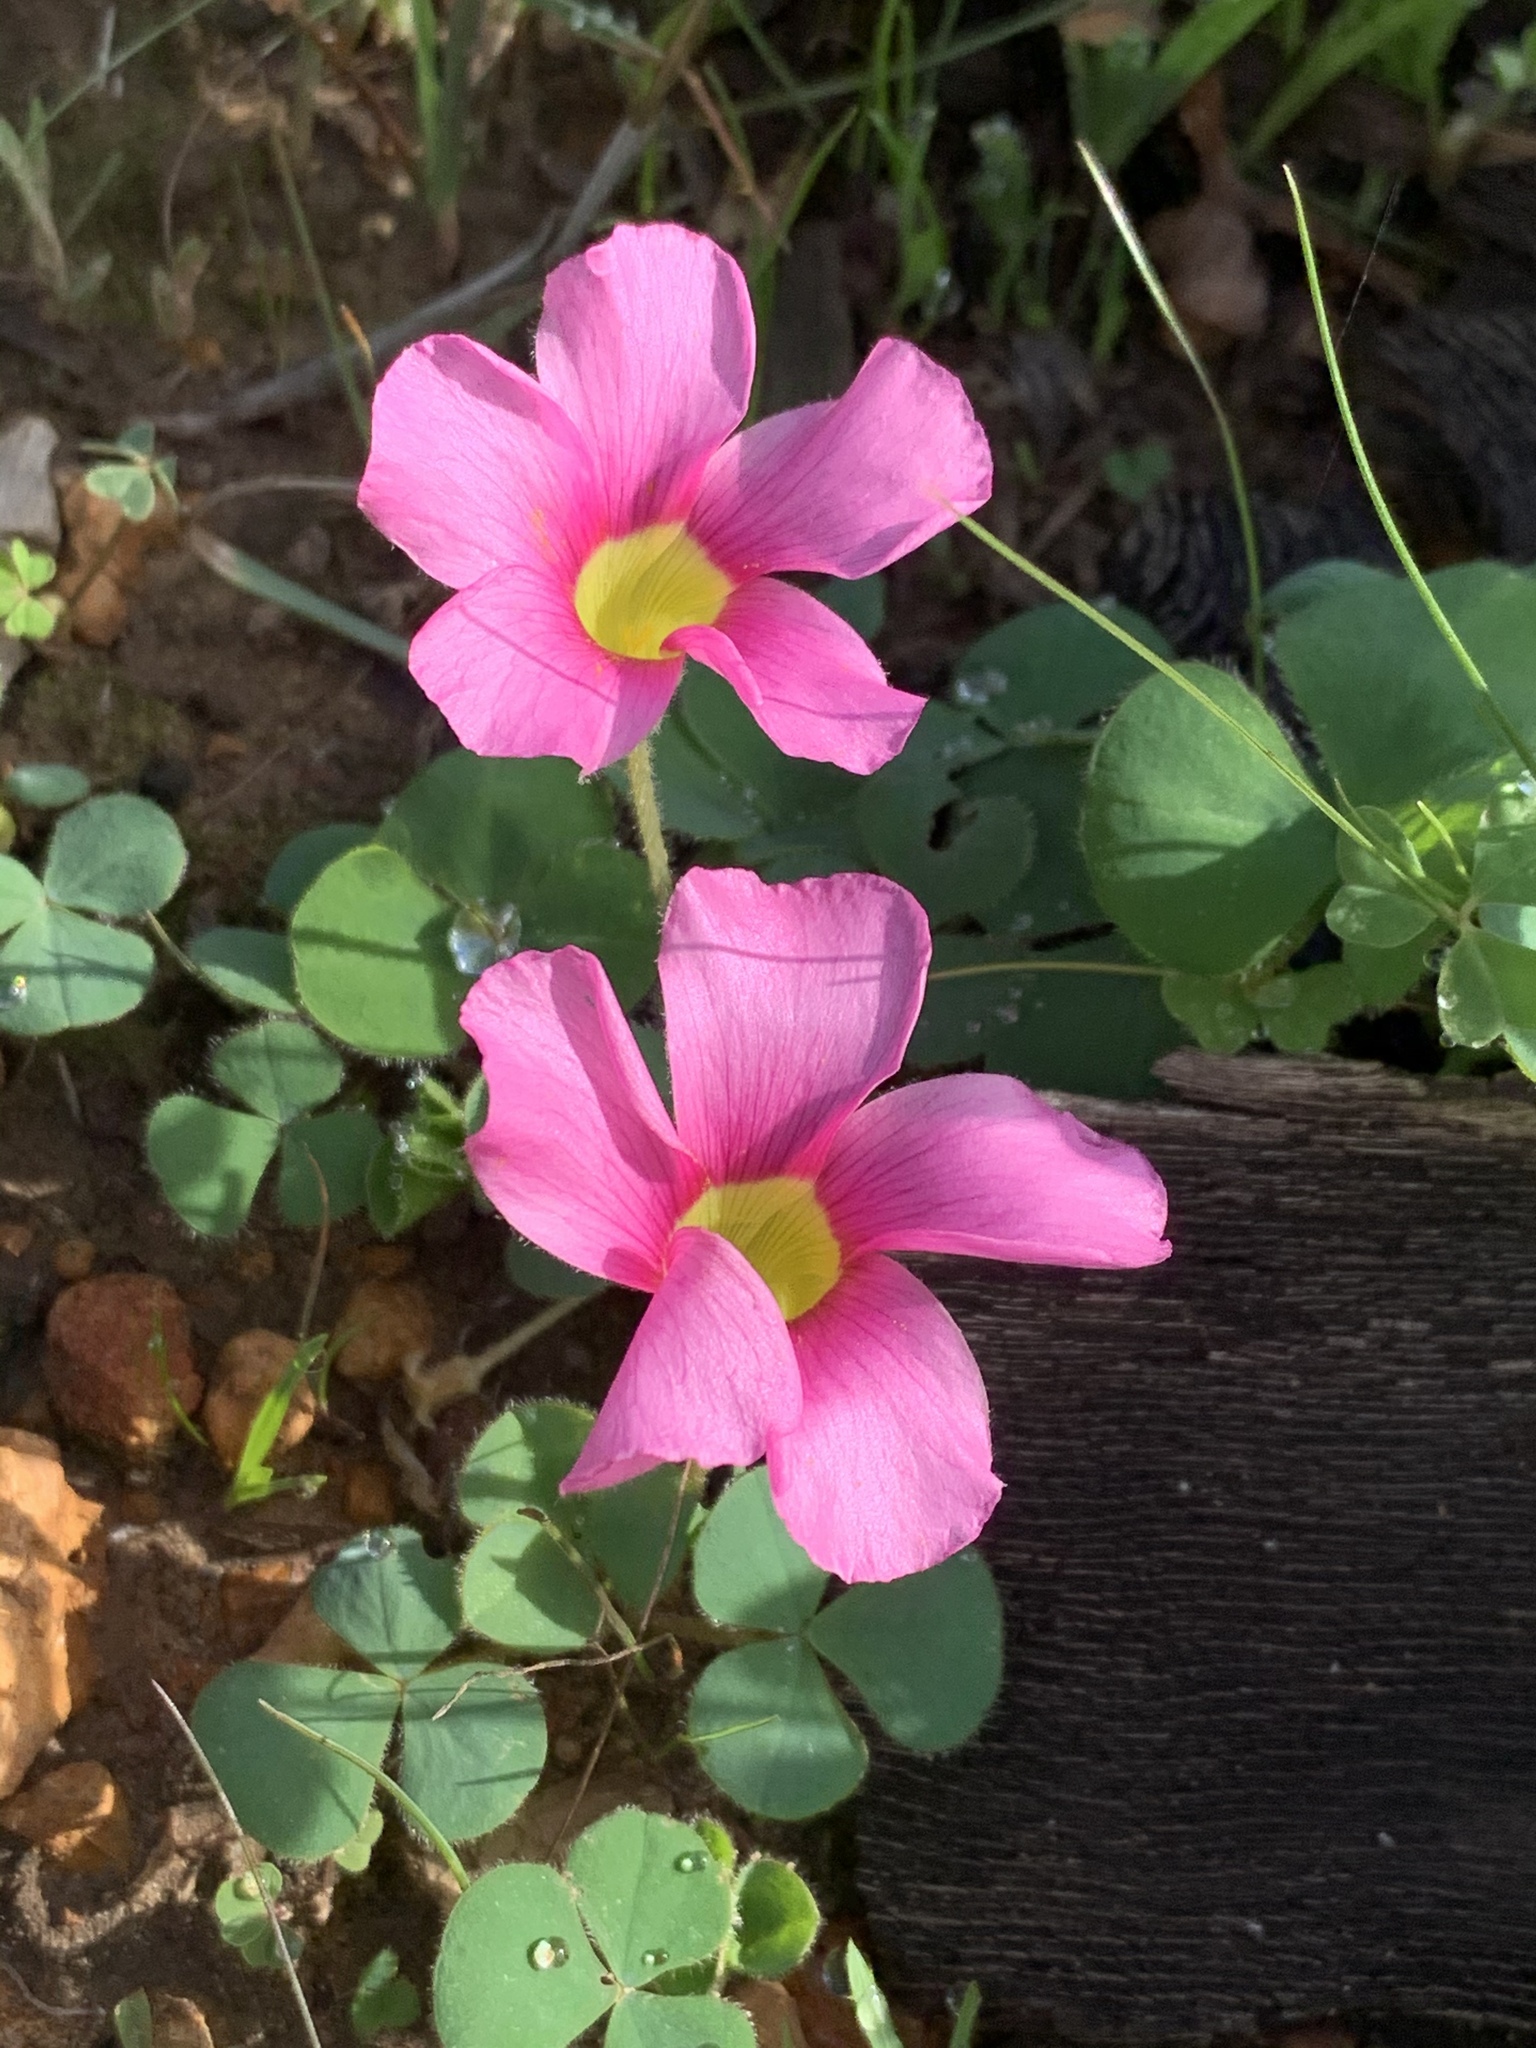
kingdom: Plantae
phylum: Tracheophyta
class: Magnoliopsida
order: Oxalidales
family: Oxalidaceae
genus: Oxalis
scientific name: Oxalis purpurea
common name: Purple woodsorrel
